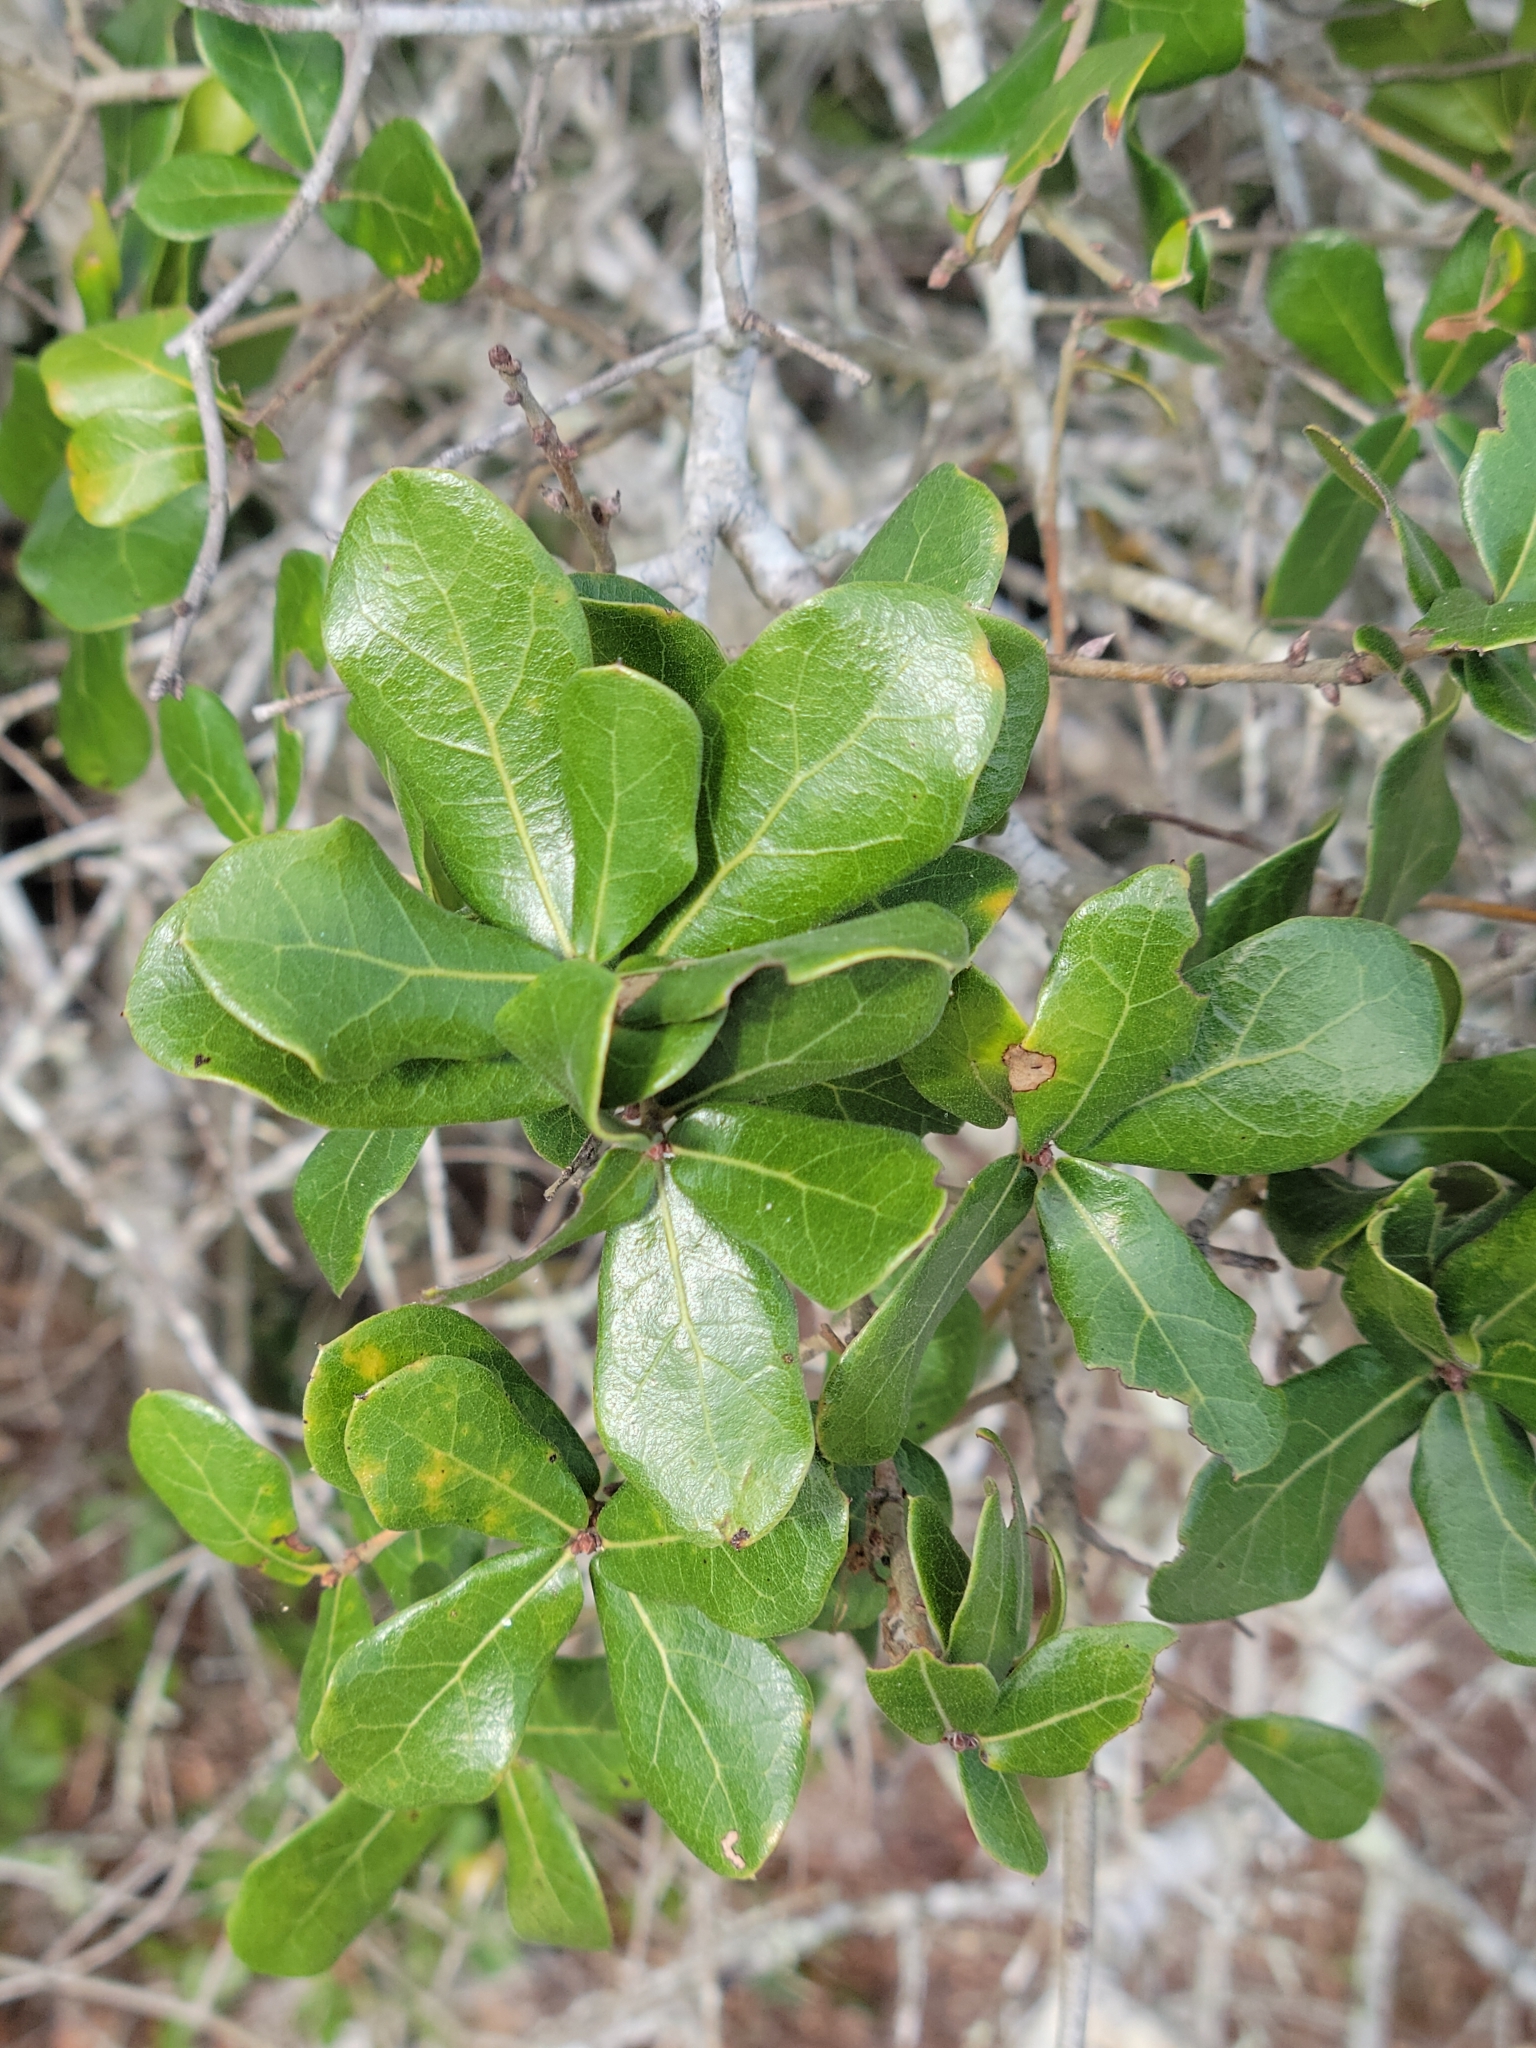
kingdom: Plantae
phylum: Tracheophyta
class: Magnoliopsida
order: Fagales
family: Fagaceae
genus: Quercus
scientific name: Quercus myrtifolia
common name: Myrtle oak
